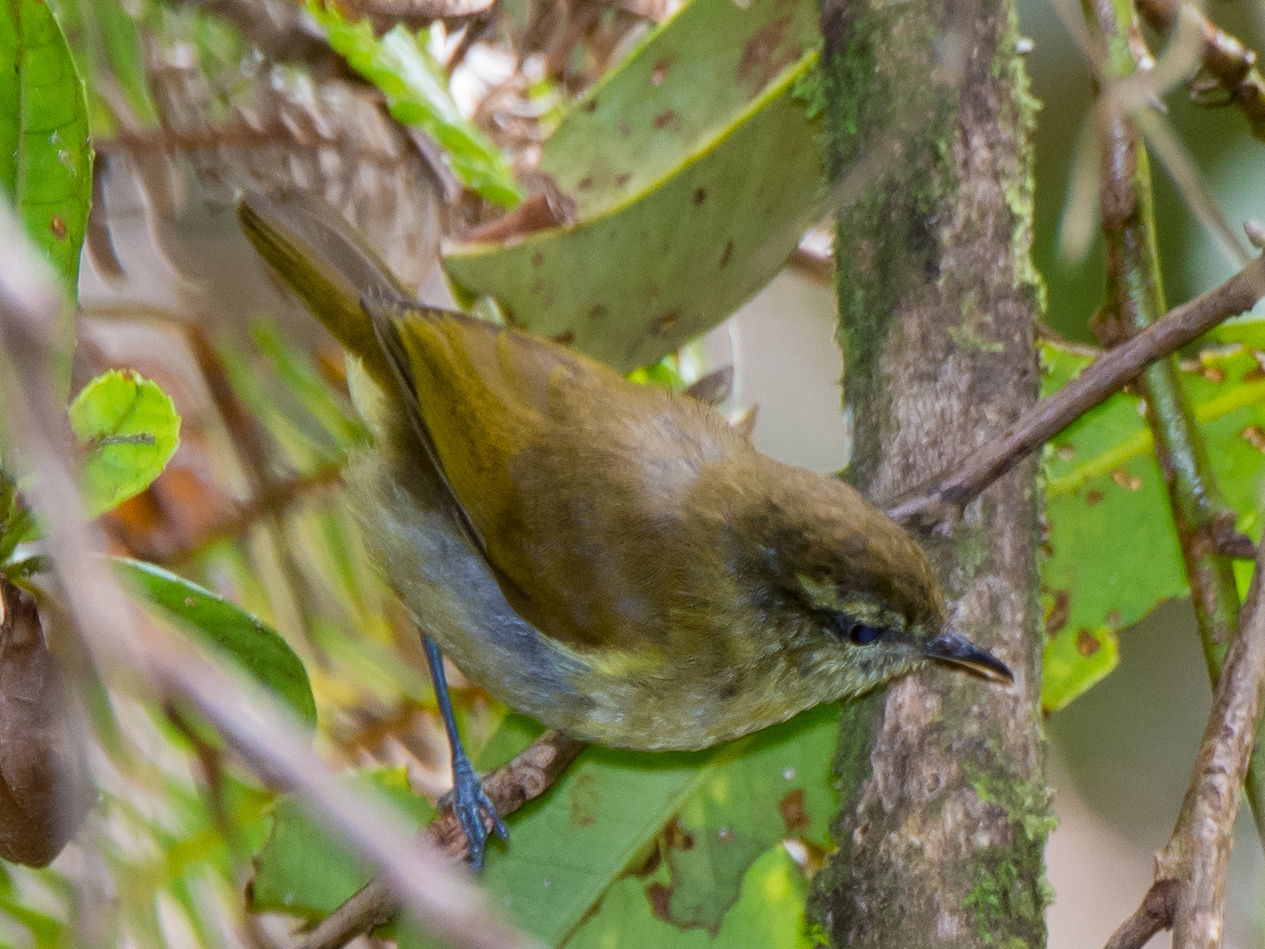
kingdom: Animalia
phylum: Chordata
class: Aves
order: Passeriformes
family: Phylloscopidae
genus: Phylloscopus
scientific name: Phylloscopus sarasinorum
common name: Sulawesi leaf warbler
